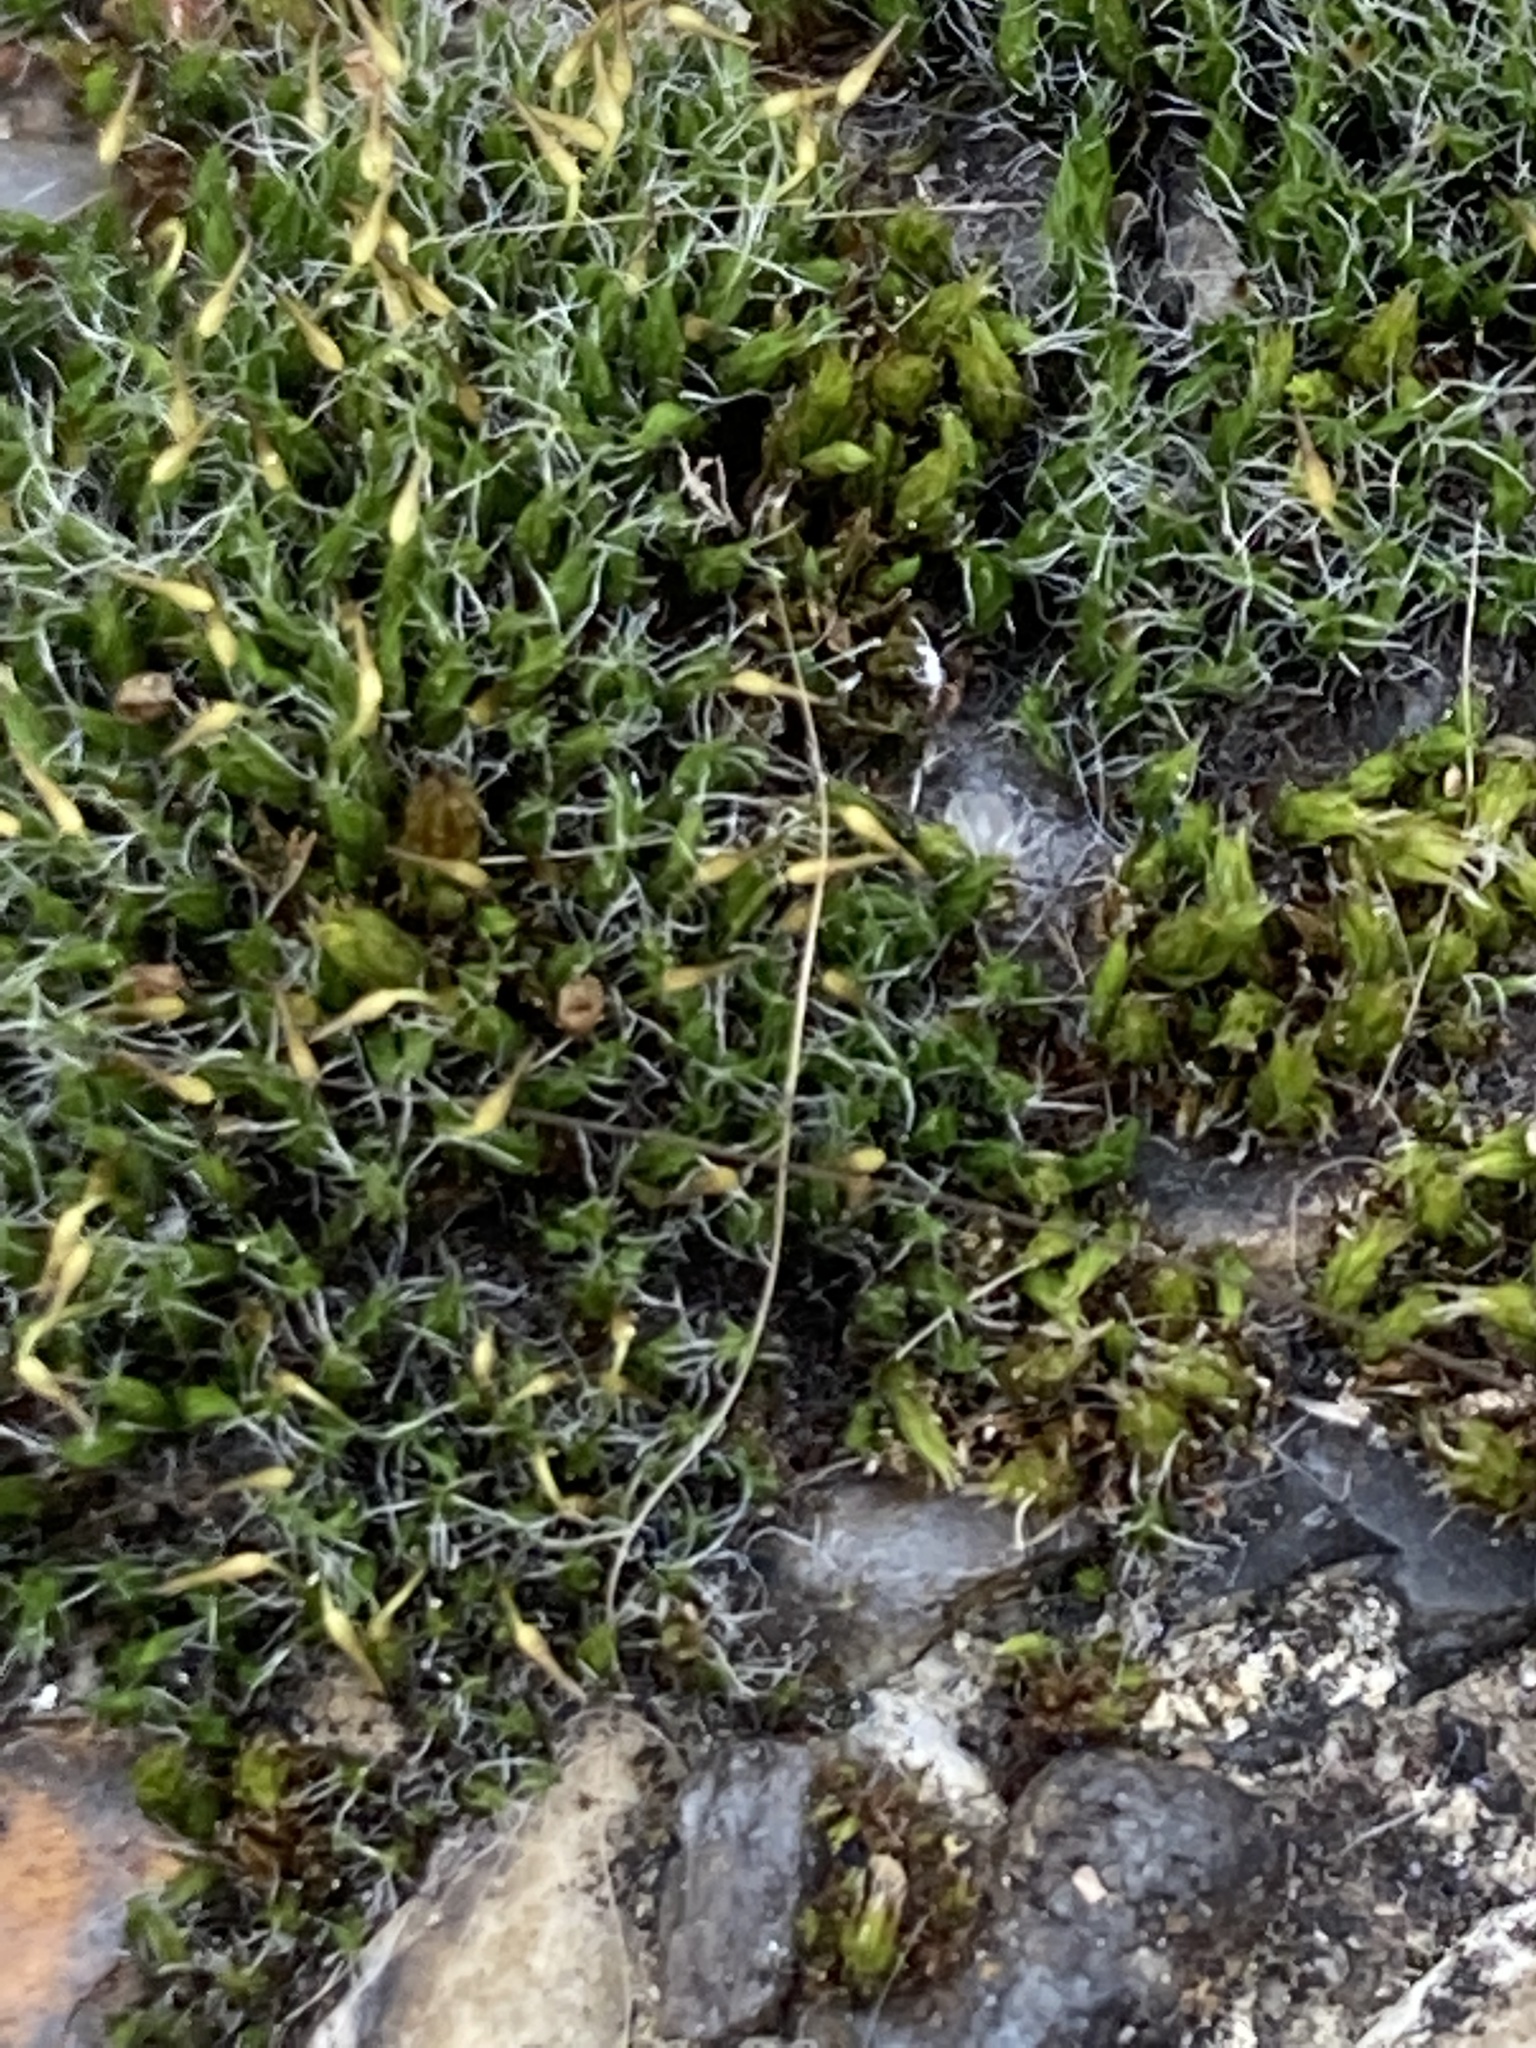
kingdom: Plantae
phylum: Bryophyta
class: Bryopsida
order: Grimmiales
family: Grimmiaceae
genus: Grimmia
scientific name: Grimmia pulvinata
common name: Grey-cushioned grimmia
